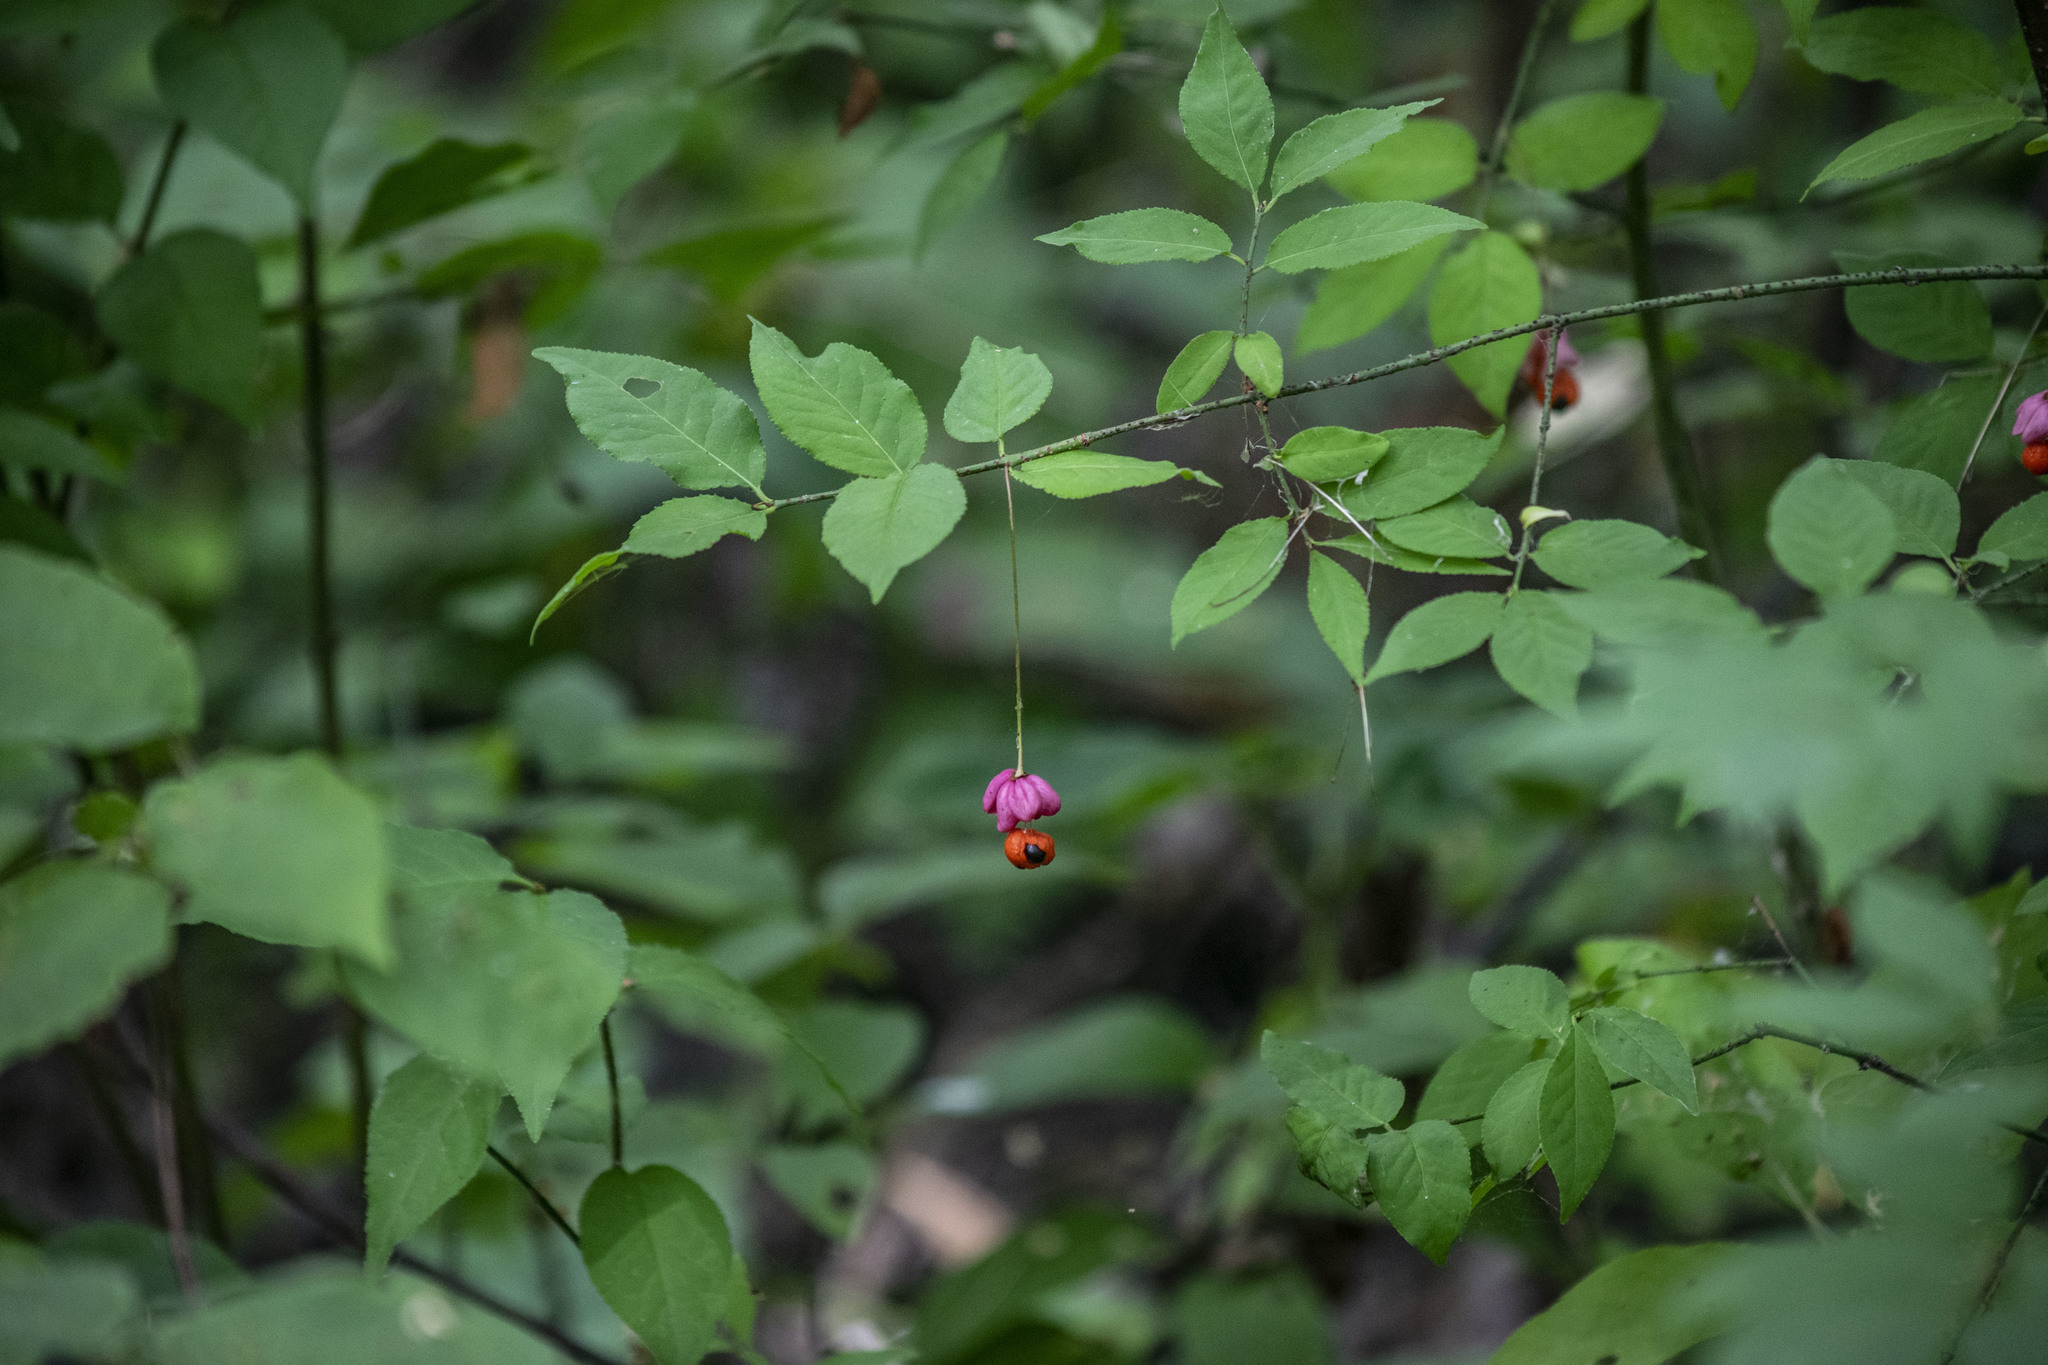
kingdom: Plantae
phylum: Tracheophyta
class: Magnoliopsida
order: Celastrales
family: Celastraceae
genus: Euonymus
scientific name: Euonymus verrucosus
